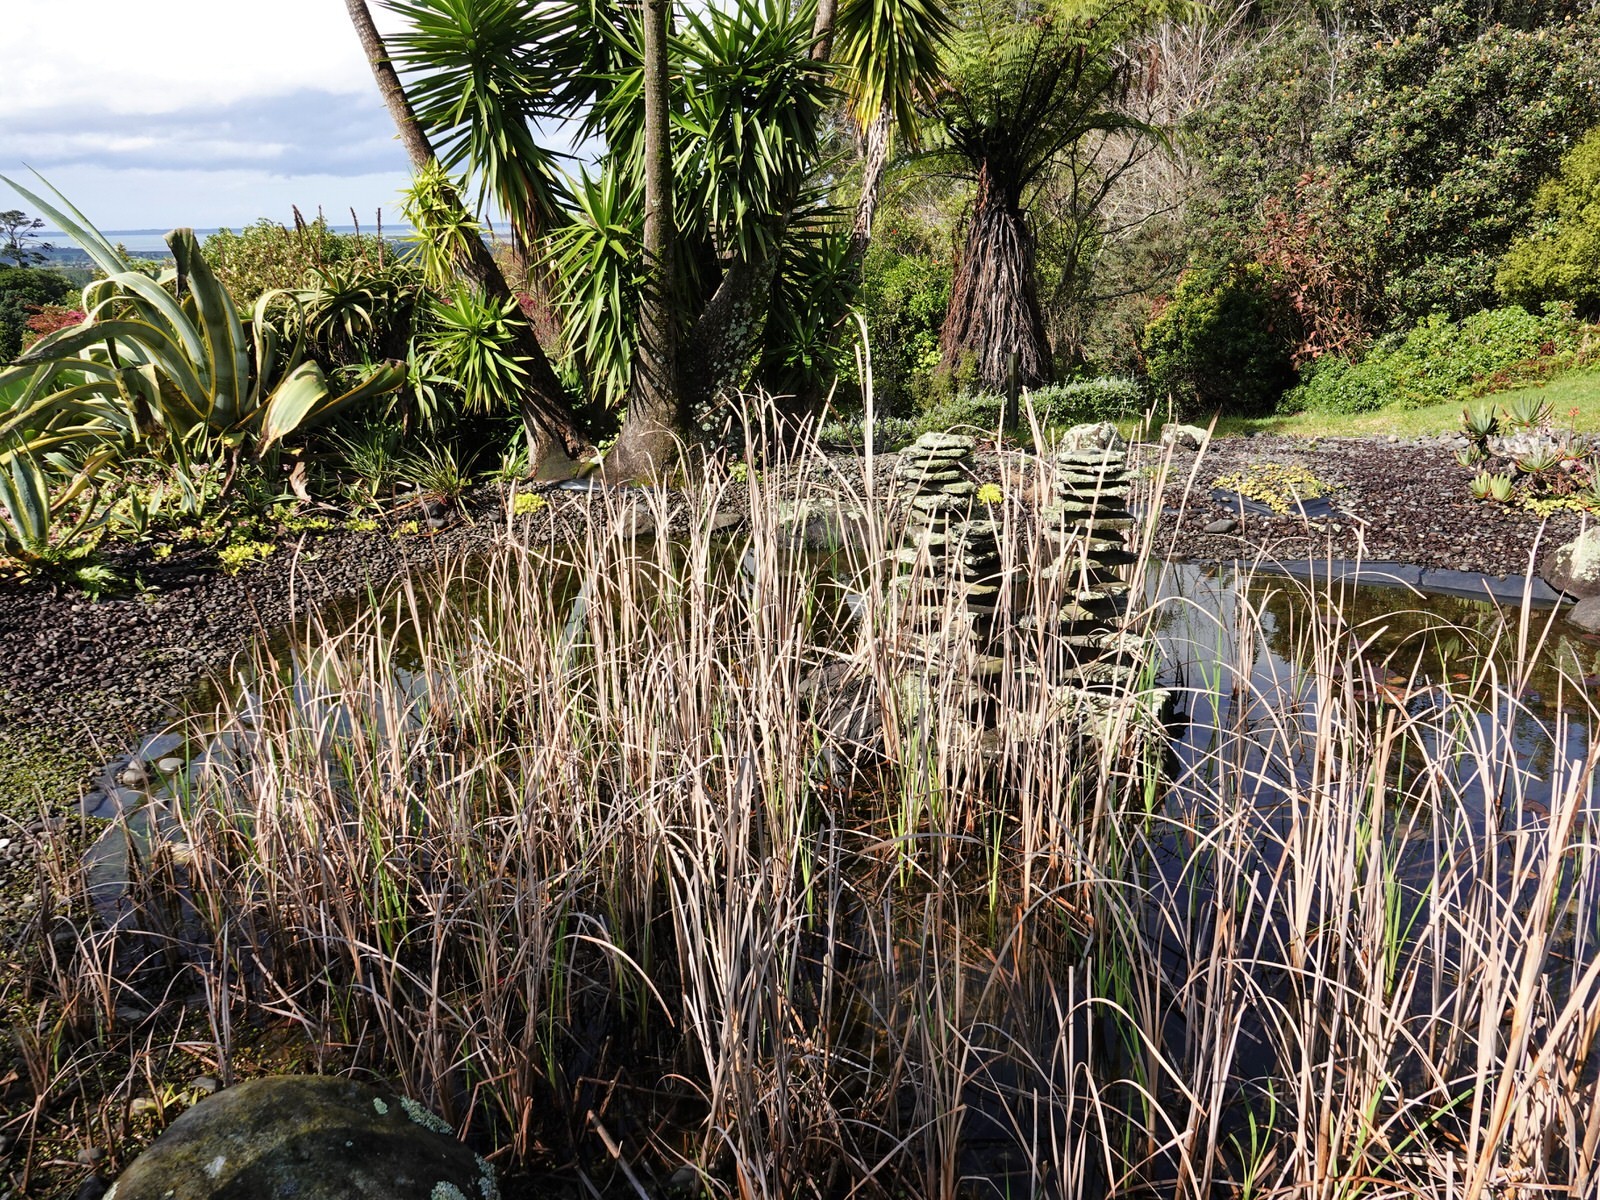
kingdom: Animalia
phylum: Chordata
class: Amphibia
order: Anura
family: Pelodryadidae
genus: Ranoidea
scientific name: Ranoidea aurea
